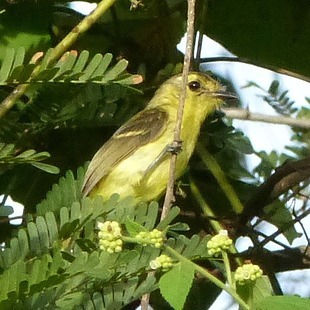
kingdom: Animalia
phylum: Chordata
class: Aves
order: Passeriformes
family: Tyrannidae
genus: Capsiempis
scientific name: Capsiempis flaveola
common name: Yellow tyrannulet
